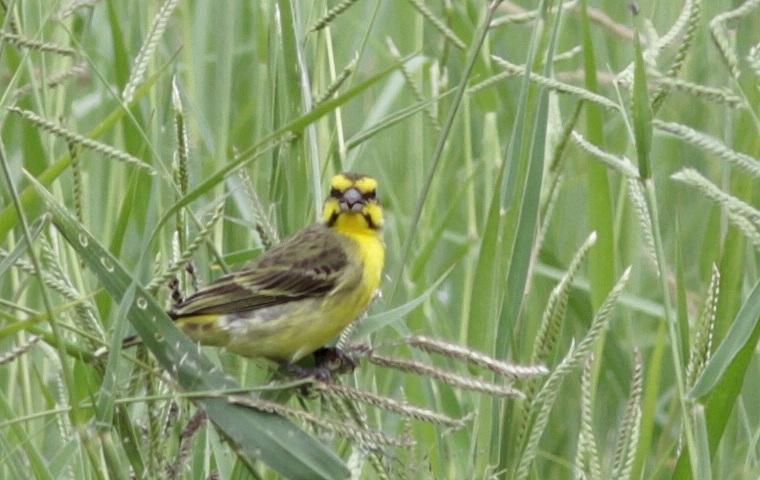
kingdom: Animalia
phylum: Chordata
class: Aves
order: Passeriformes
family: Fringillidae
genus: Crithagra
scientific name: Crithagra mozambica
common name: Yellow-fronted canary
